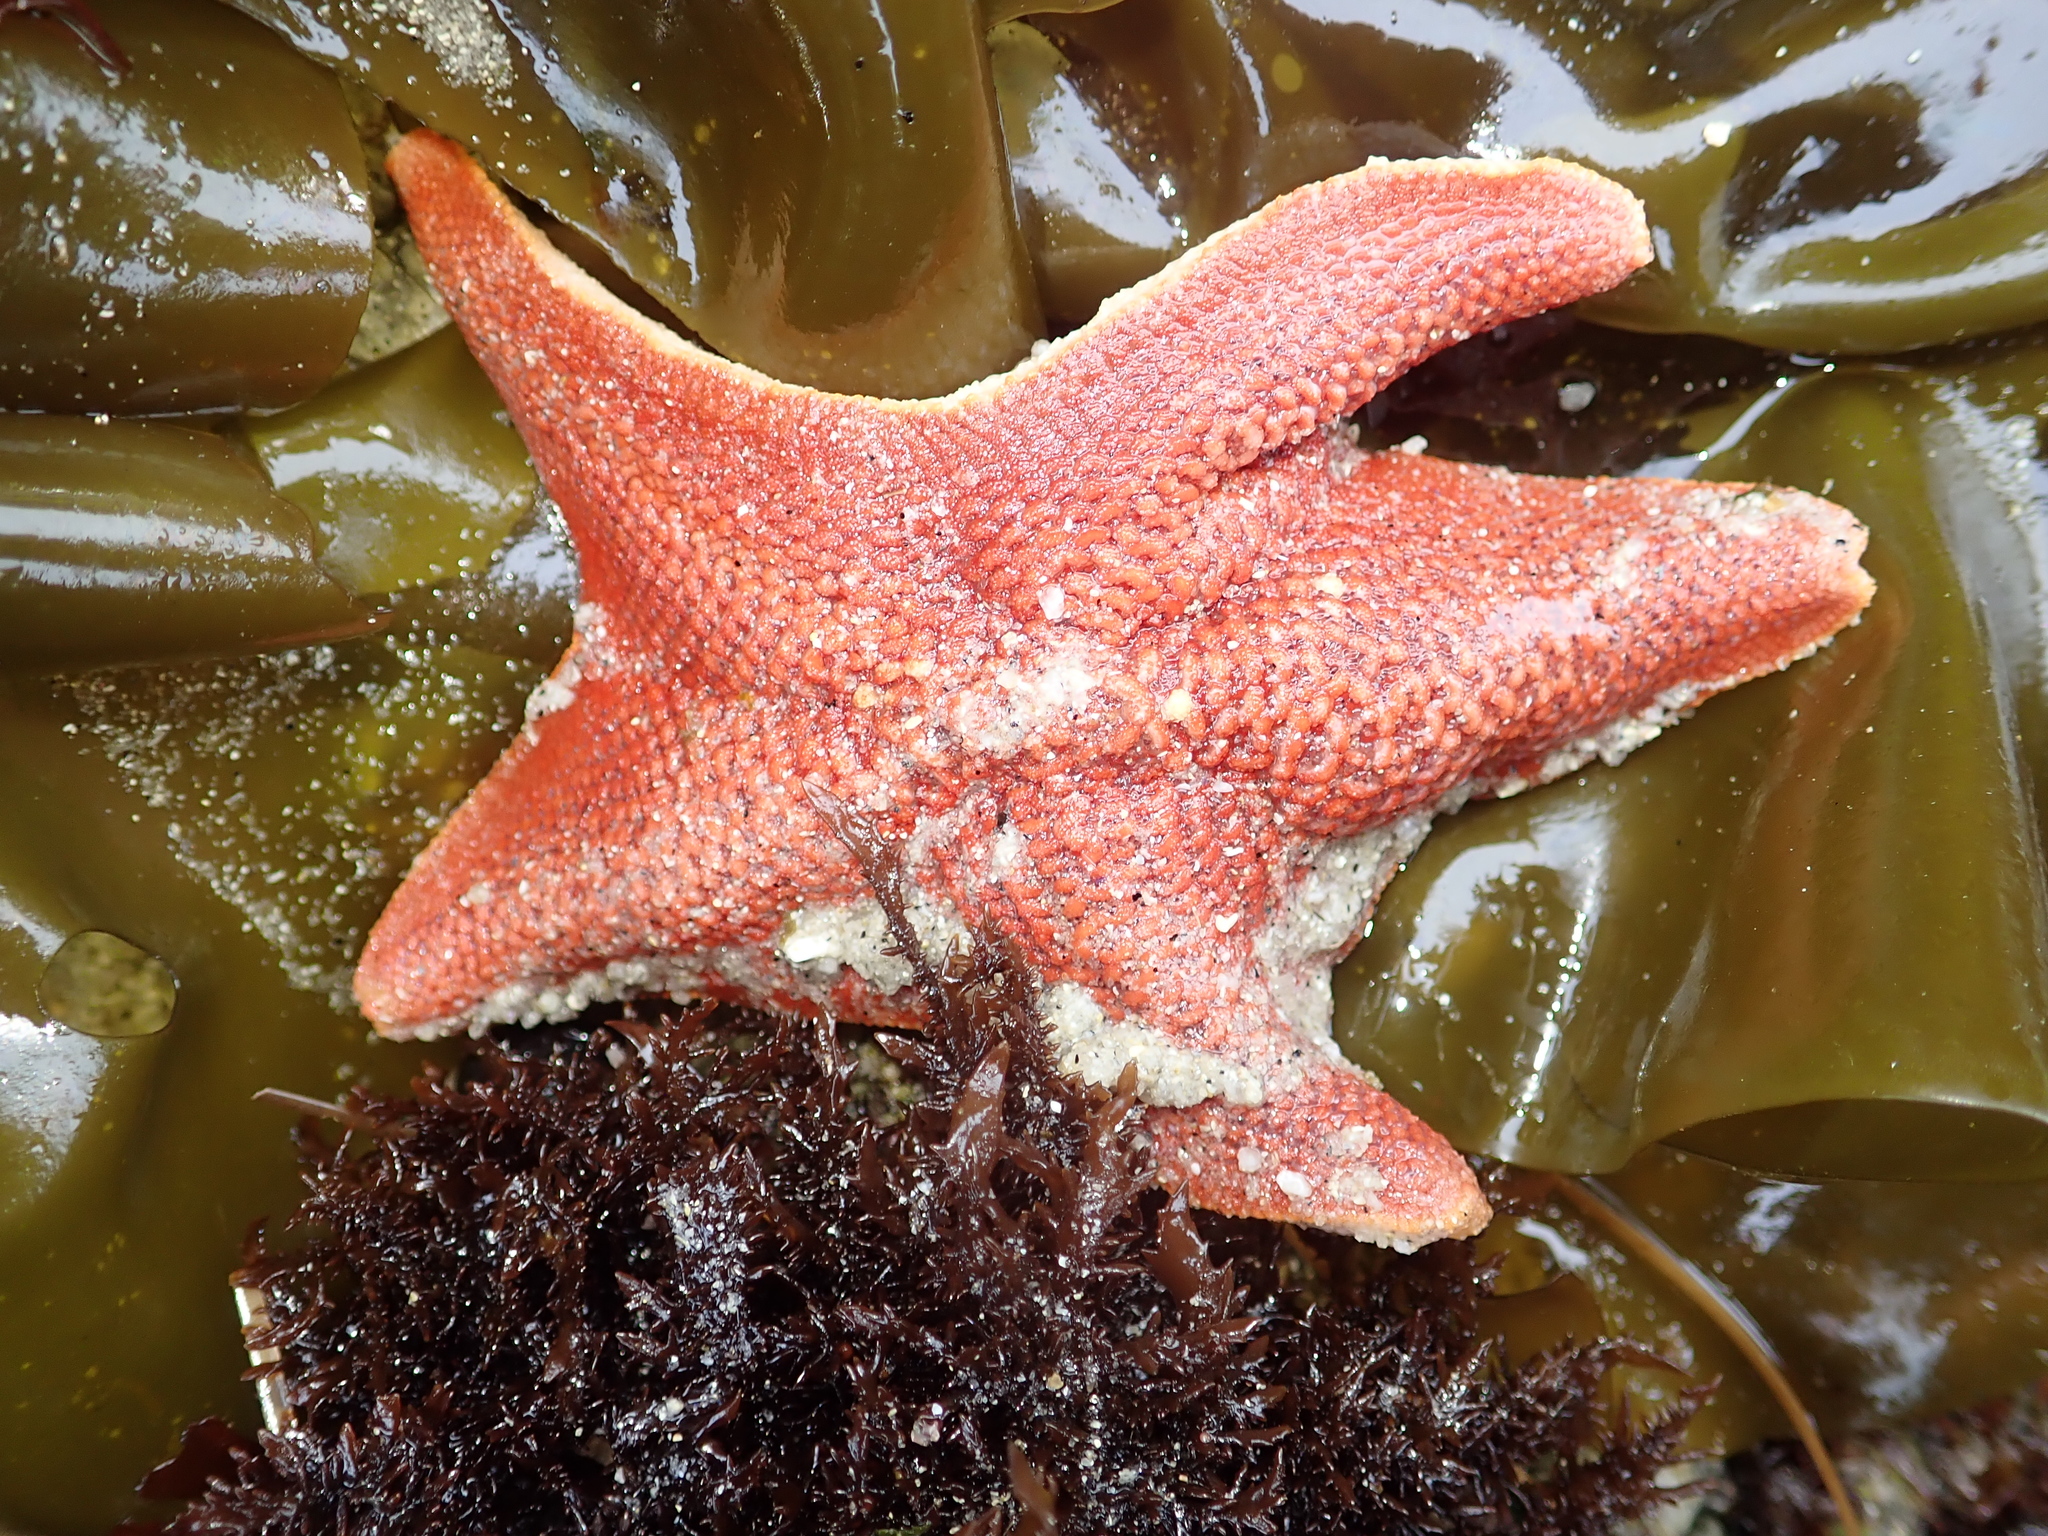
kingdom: Animalia
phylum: Echinodermata
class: Asteroidea
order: Valvatida
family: Asterinidae
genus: Patiria
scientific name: Patiria miniata
